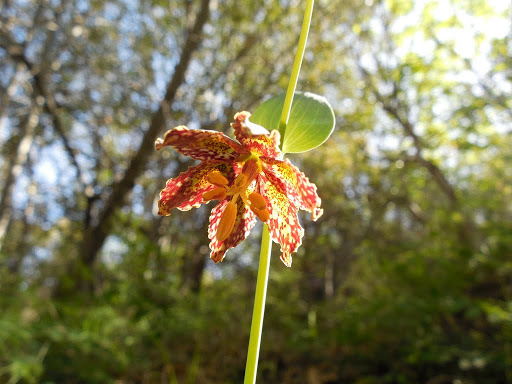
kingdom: Plantae
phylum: Tracheophyta
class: Liliopsida
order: Liliales
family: Liliaceae
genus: Fritillaria
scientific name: Fritillaria affinis
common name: Ojai fritillary
